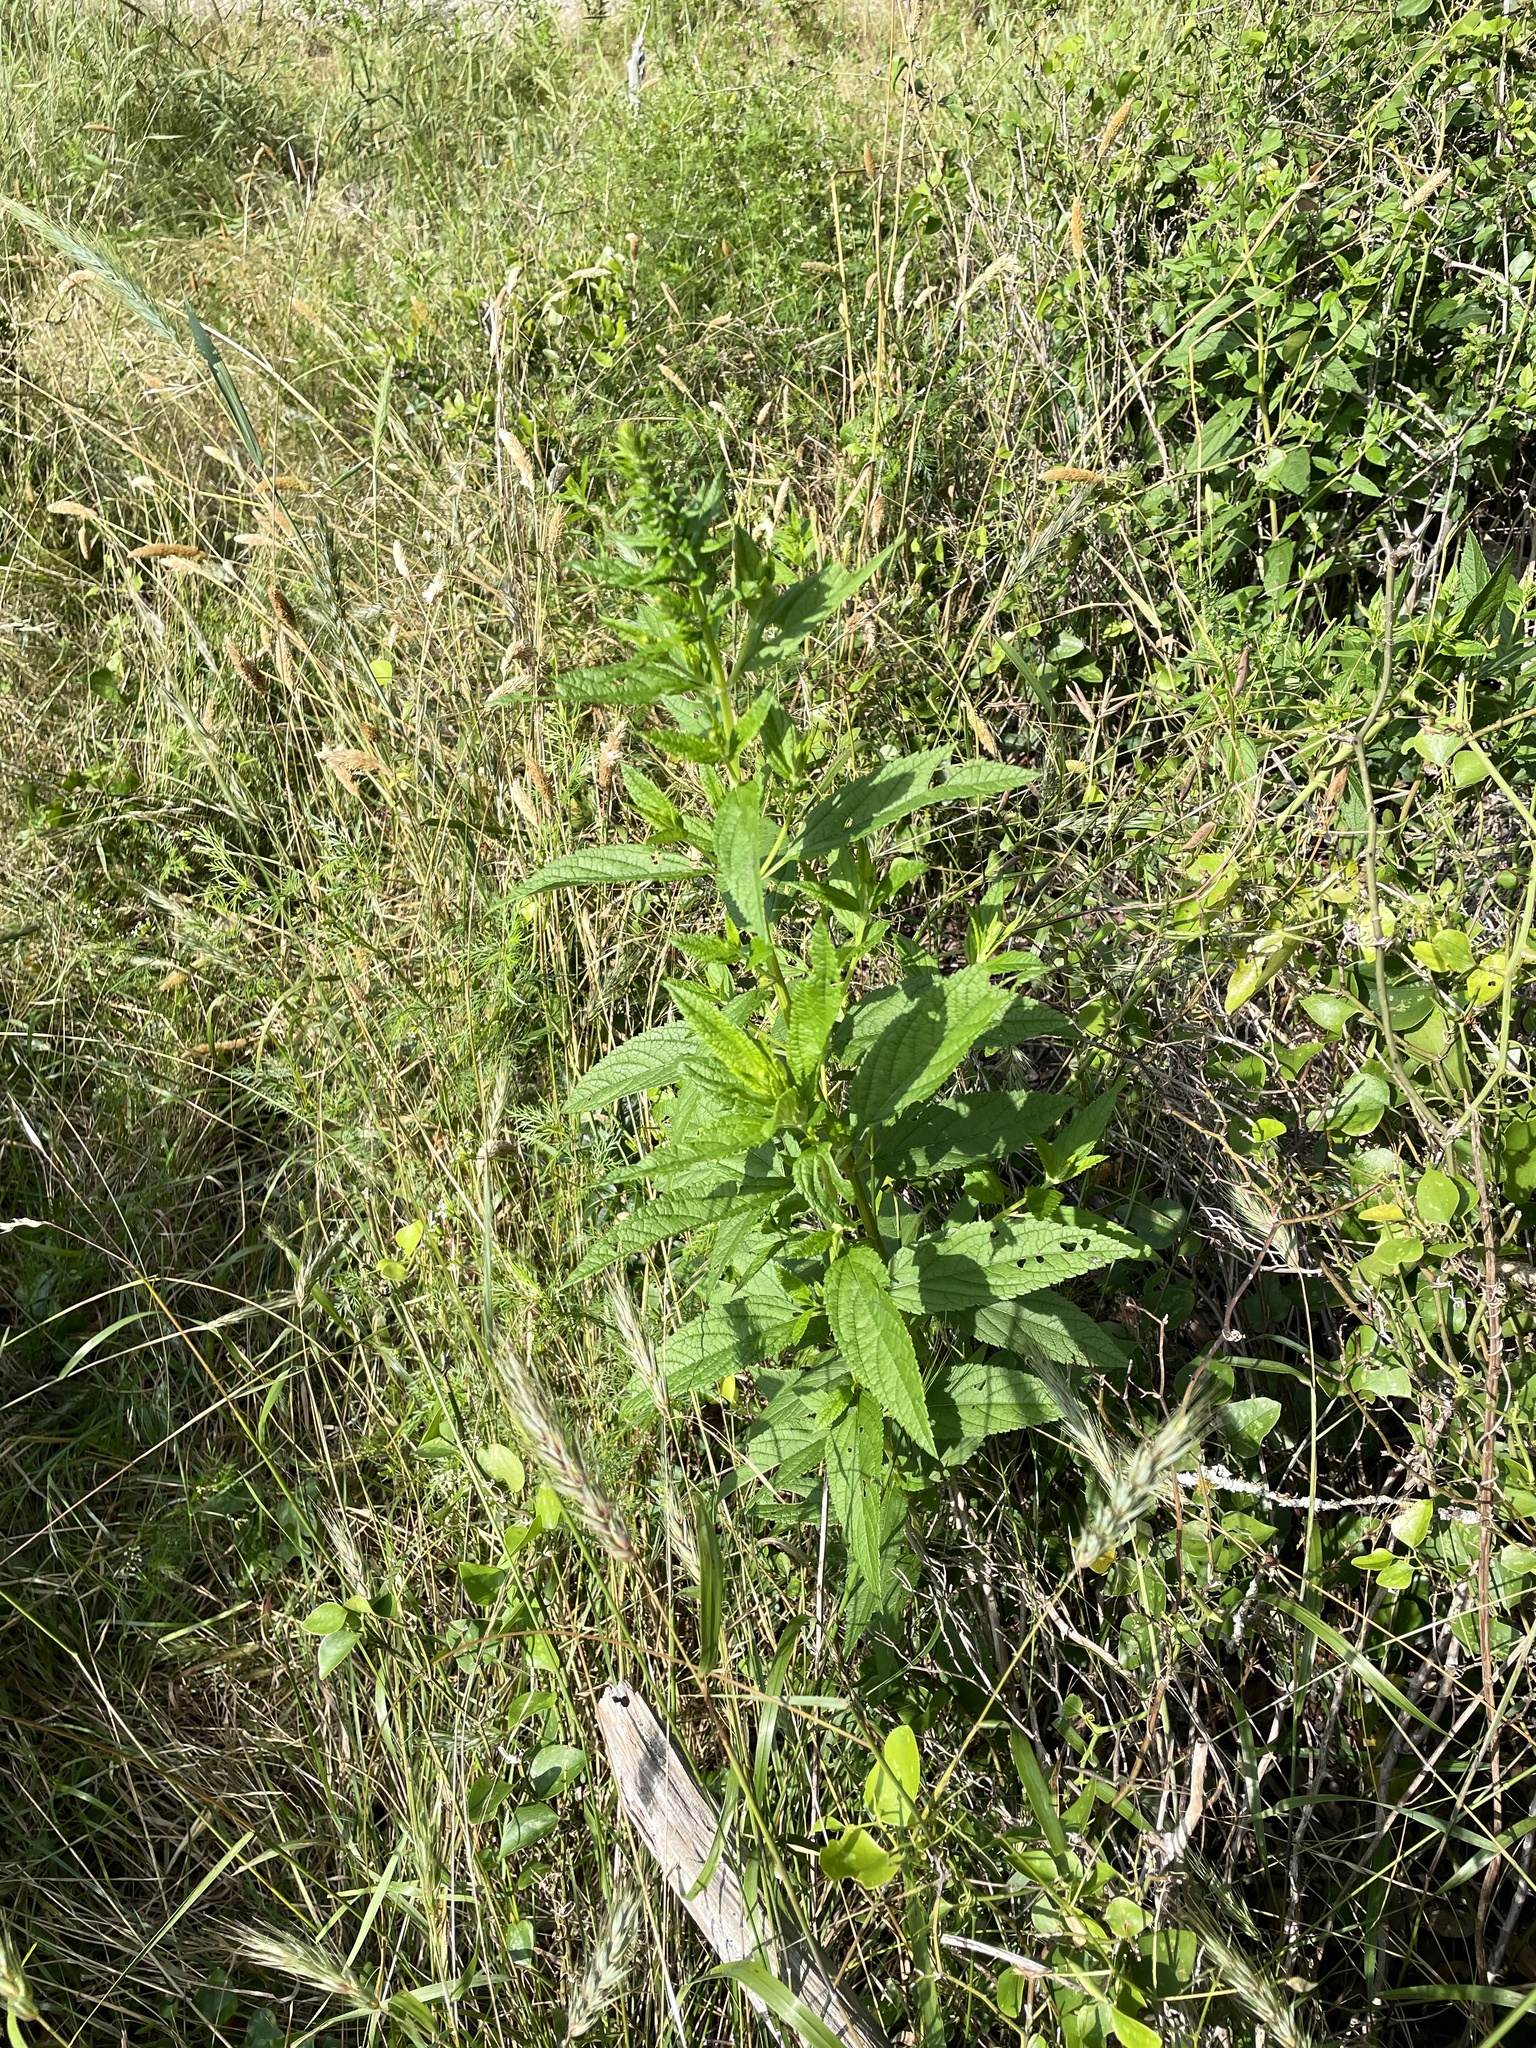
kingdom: Plantae
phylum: Tracheophyta
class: Magnoliopsida
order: Lamiales
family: Lamiaceae
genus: Teucrium
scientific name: Teucrium canadense
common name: American germander
